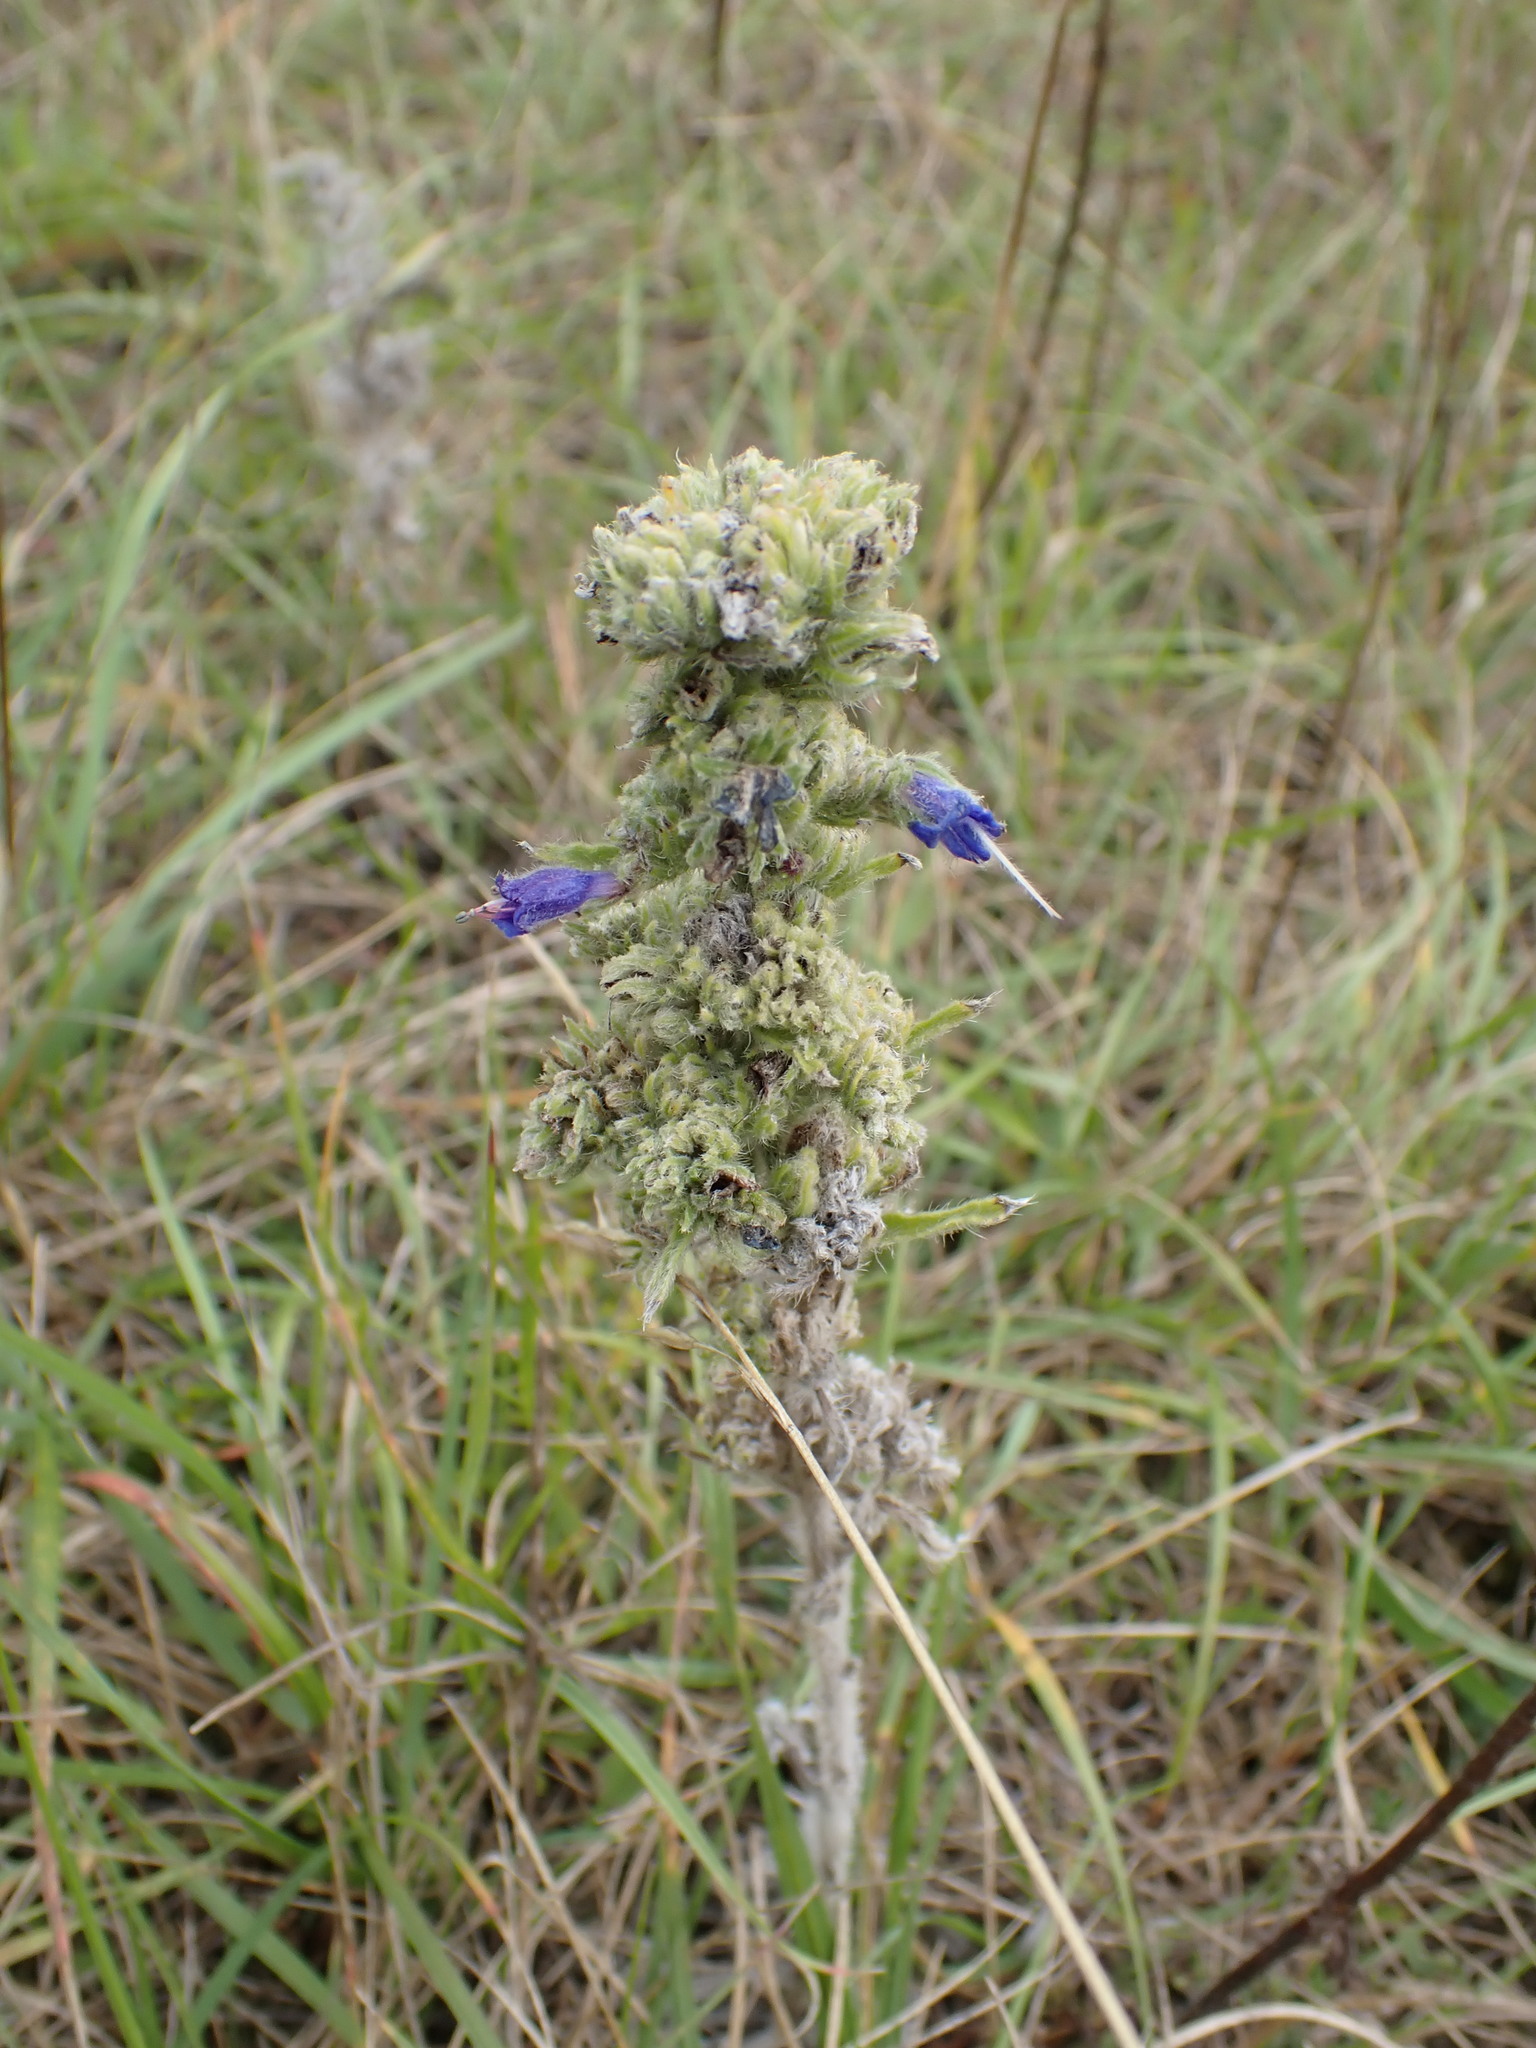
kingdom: Plantae
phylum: Tracheophyta
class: Magnoliopsida
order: Boraginales
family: Boraginaceae
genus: Echium
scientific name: Echium vulgare
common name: Common viper's bugloss
